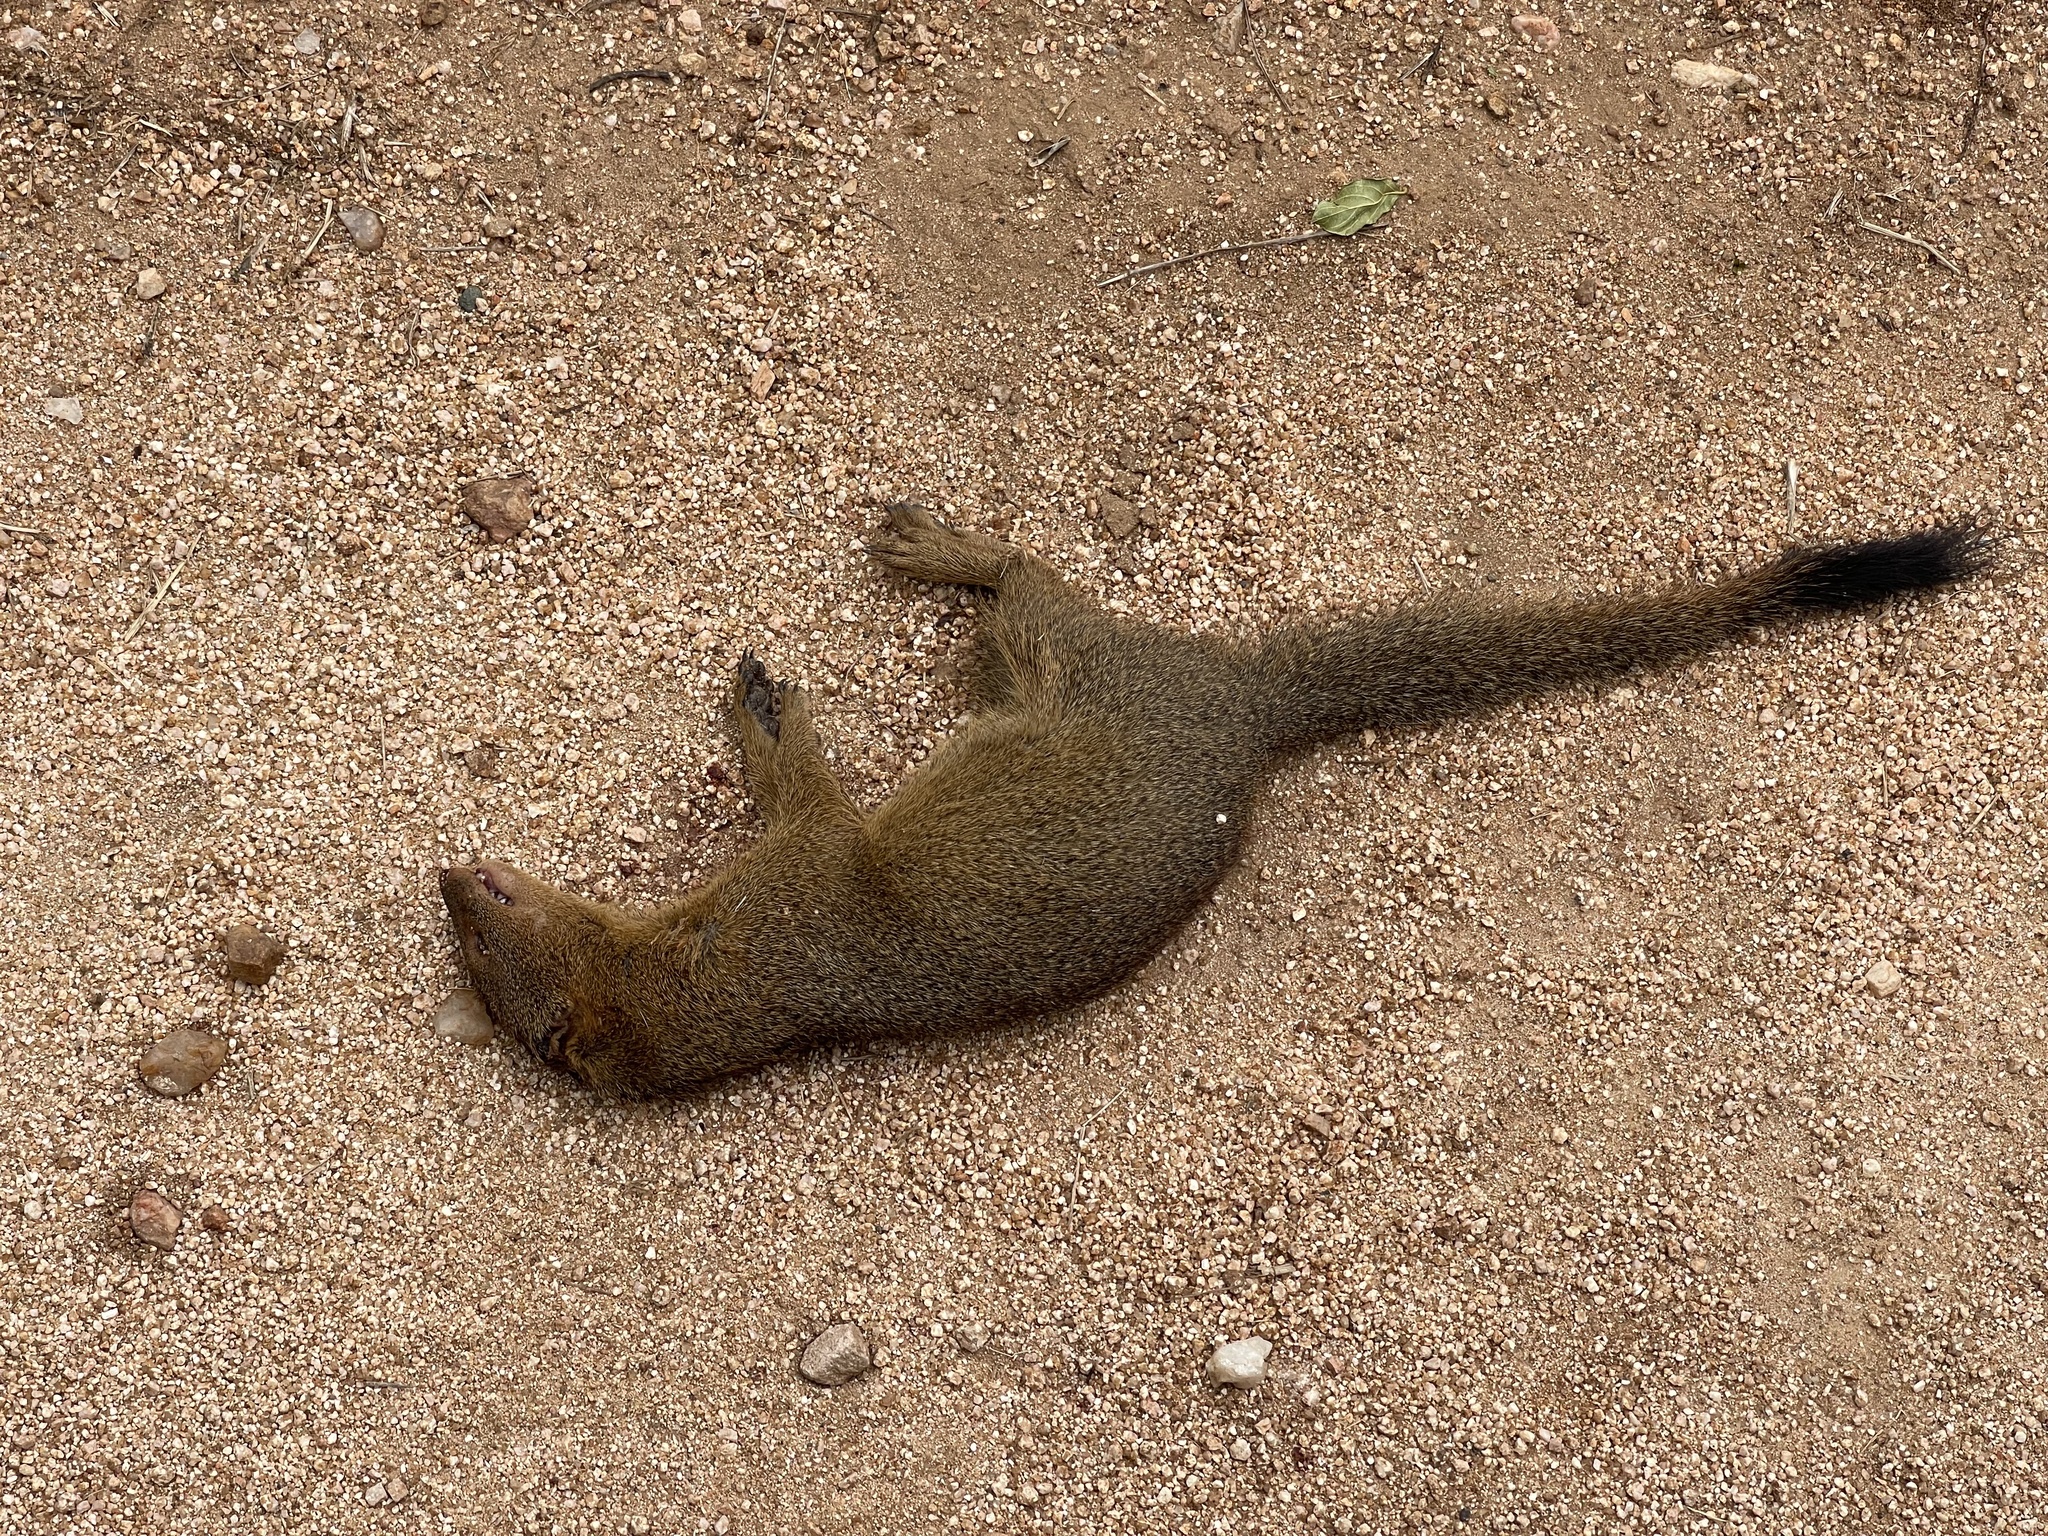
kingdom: Animalia
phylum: Chordata
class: Mammalia
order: Carnivora
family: Herpestidae
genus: Galerella
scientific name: Galerella sanguinea
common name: Slender mongoose
